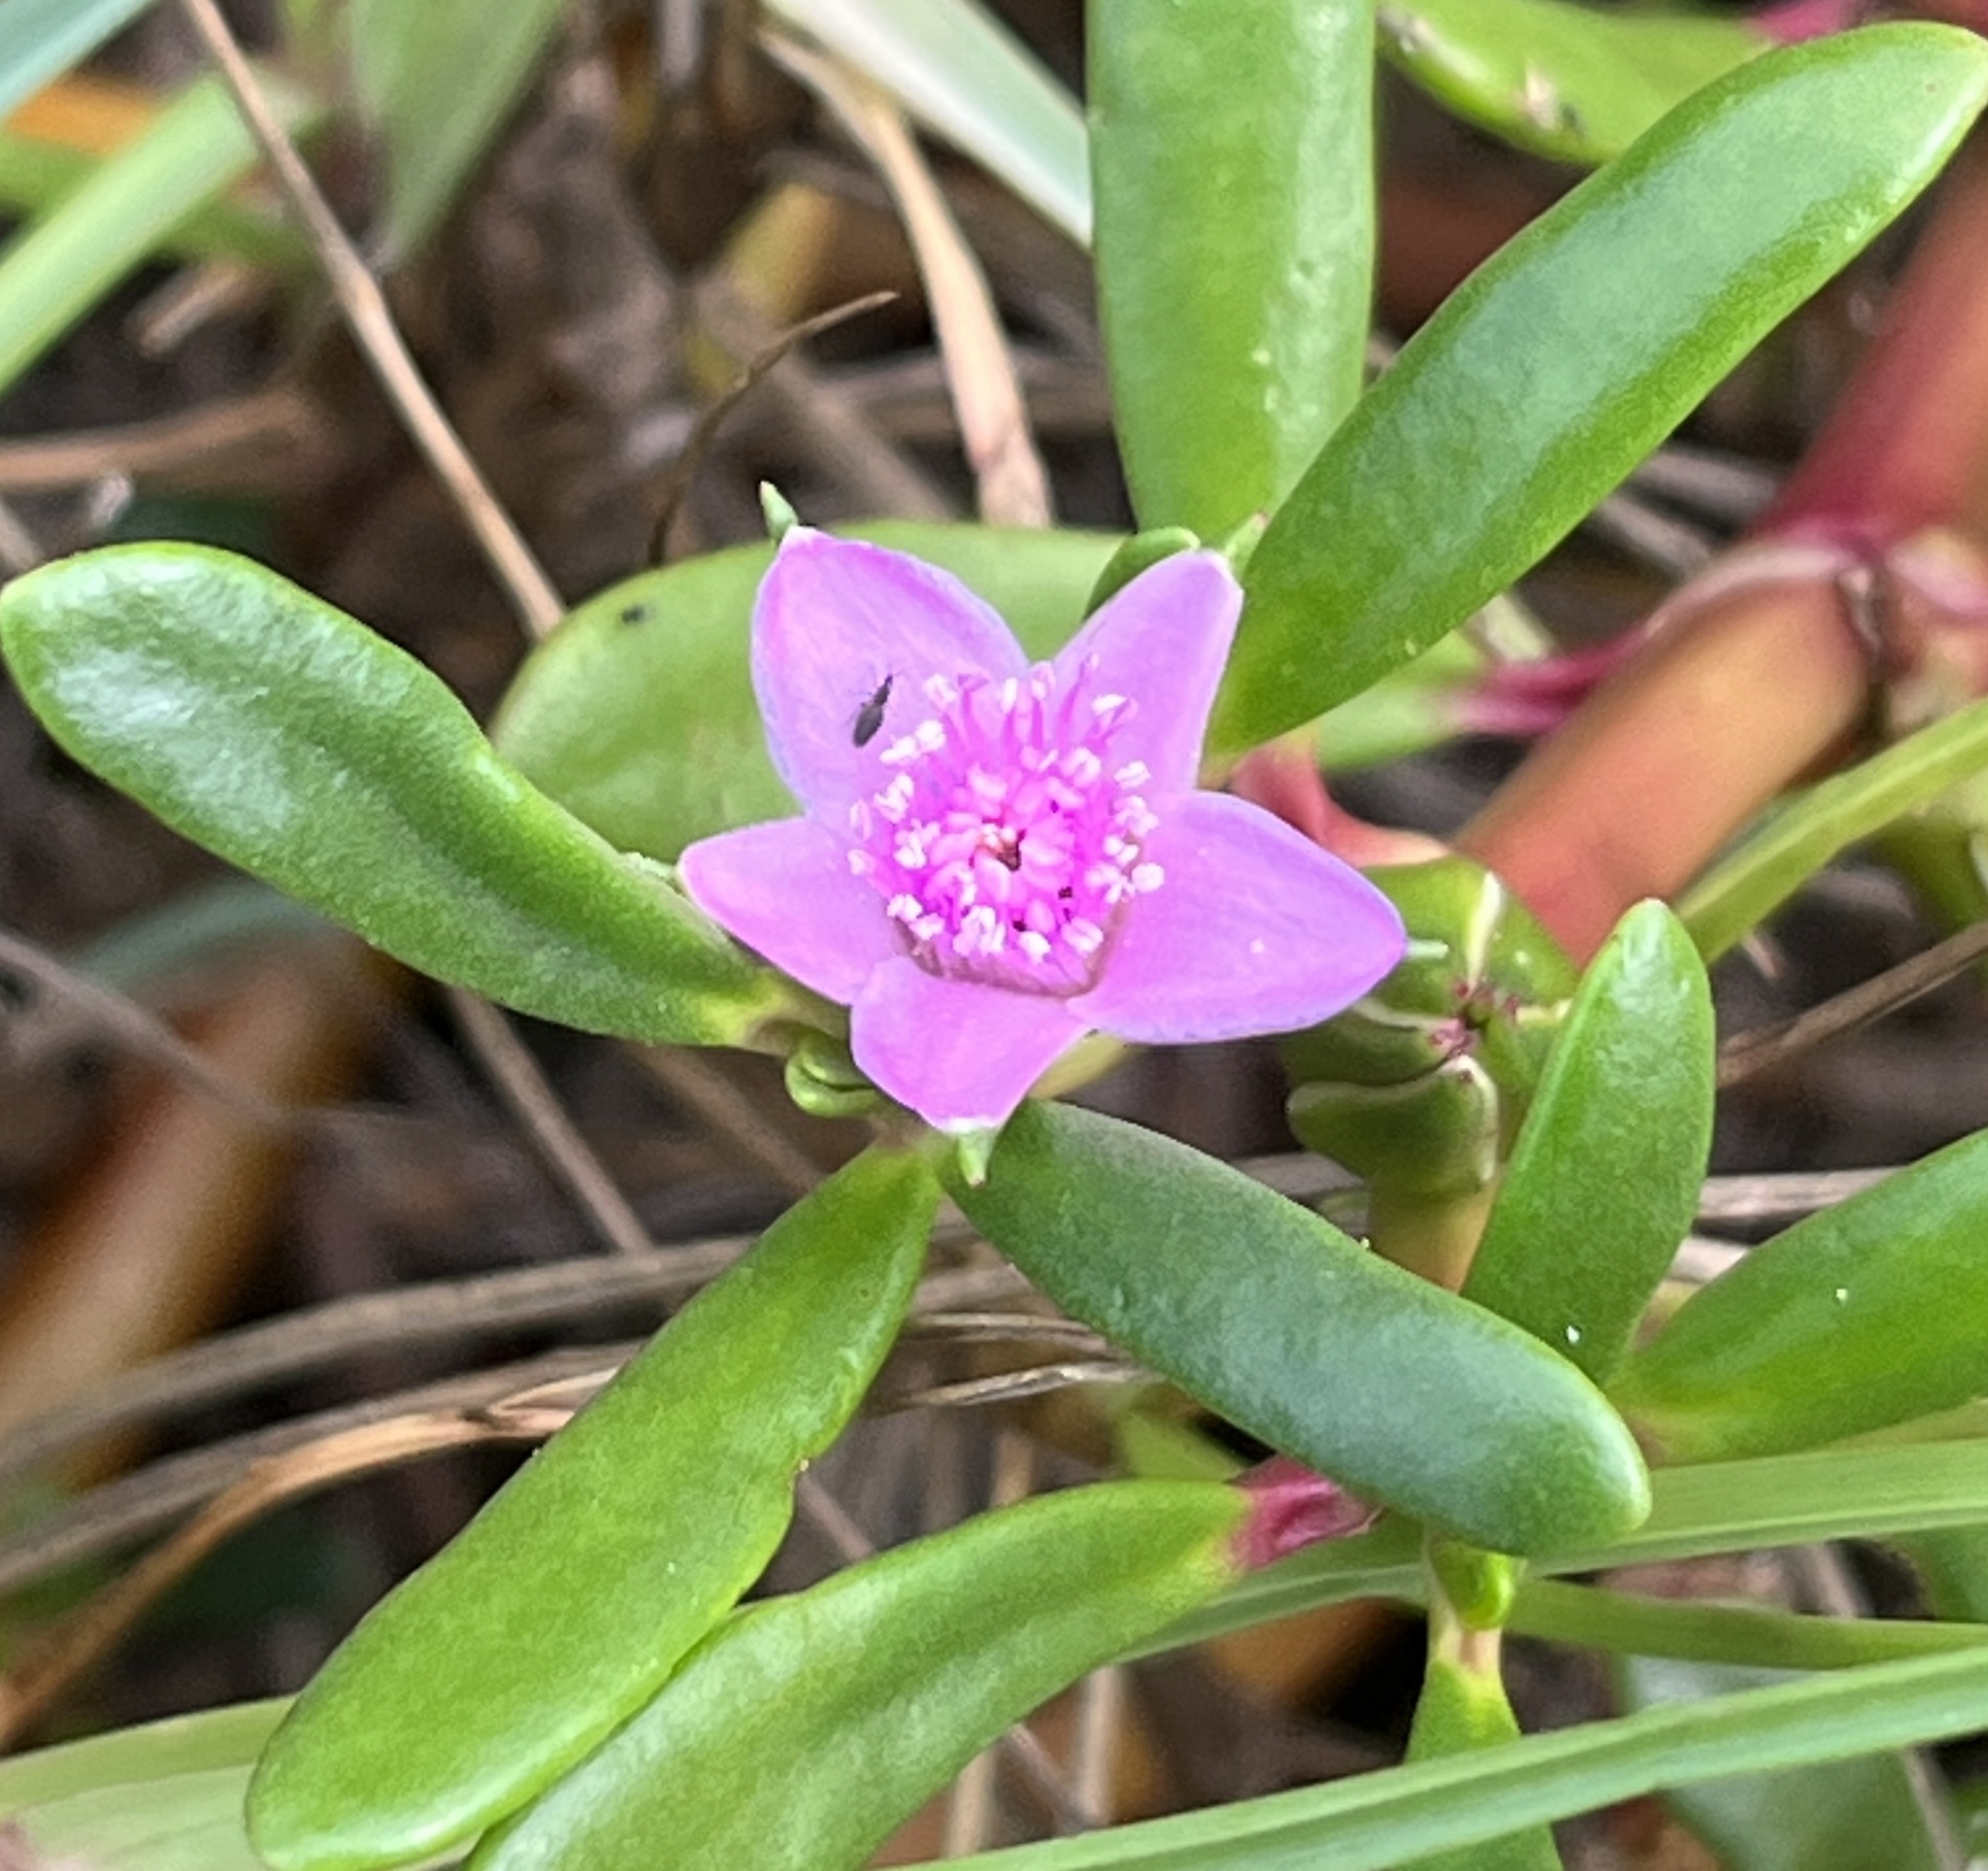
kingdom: Plantae
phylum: Tracheophyta
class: Magnoliopsida
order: Caryophyllales
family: Aizoaceae
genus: Sesuvium
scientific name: Sesuvium portulacastrum
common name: Sea-purslane
